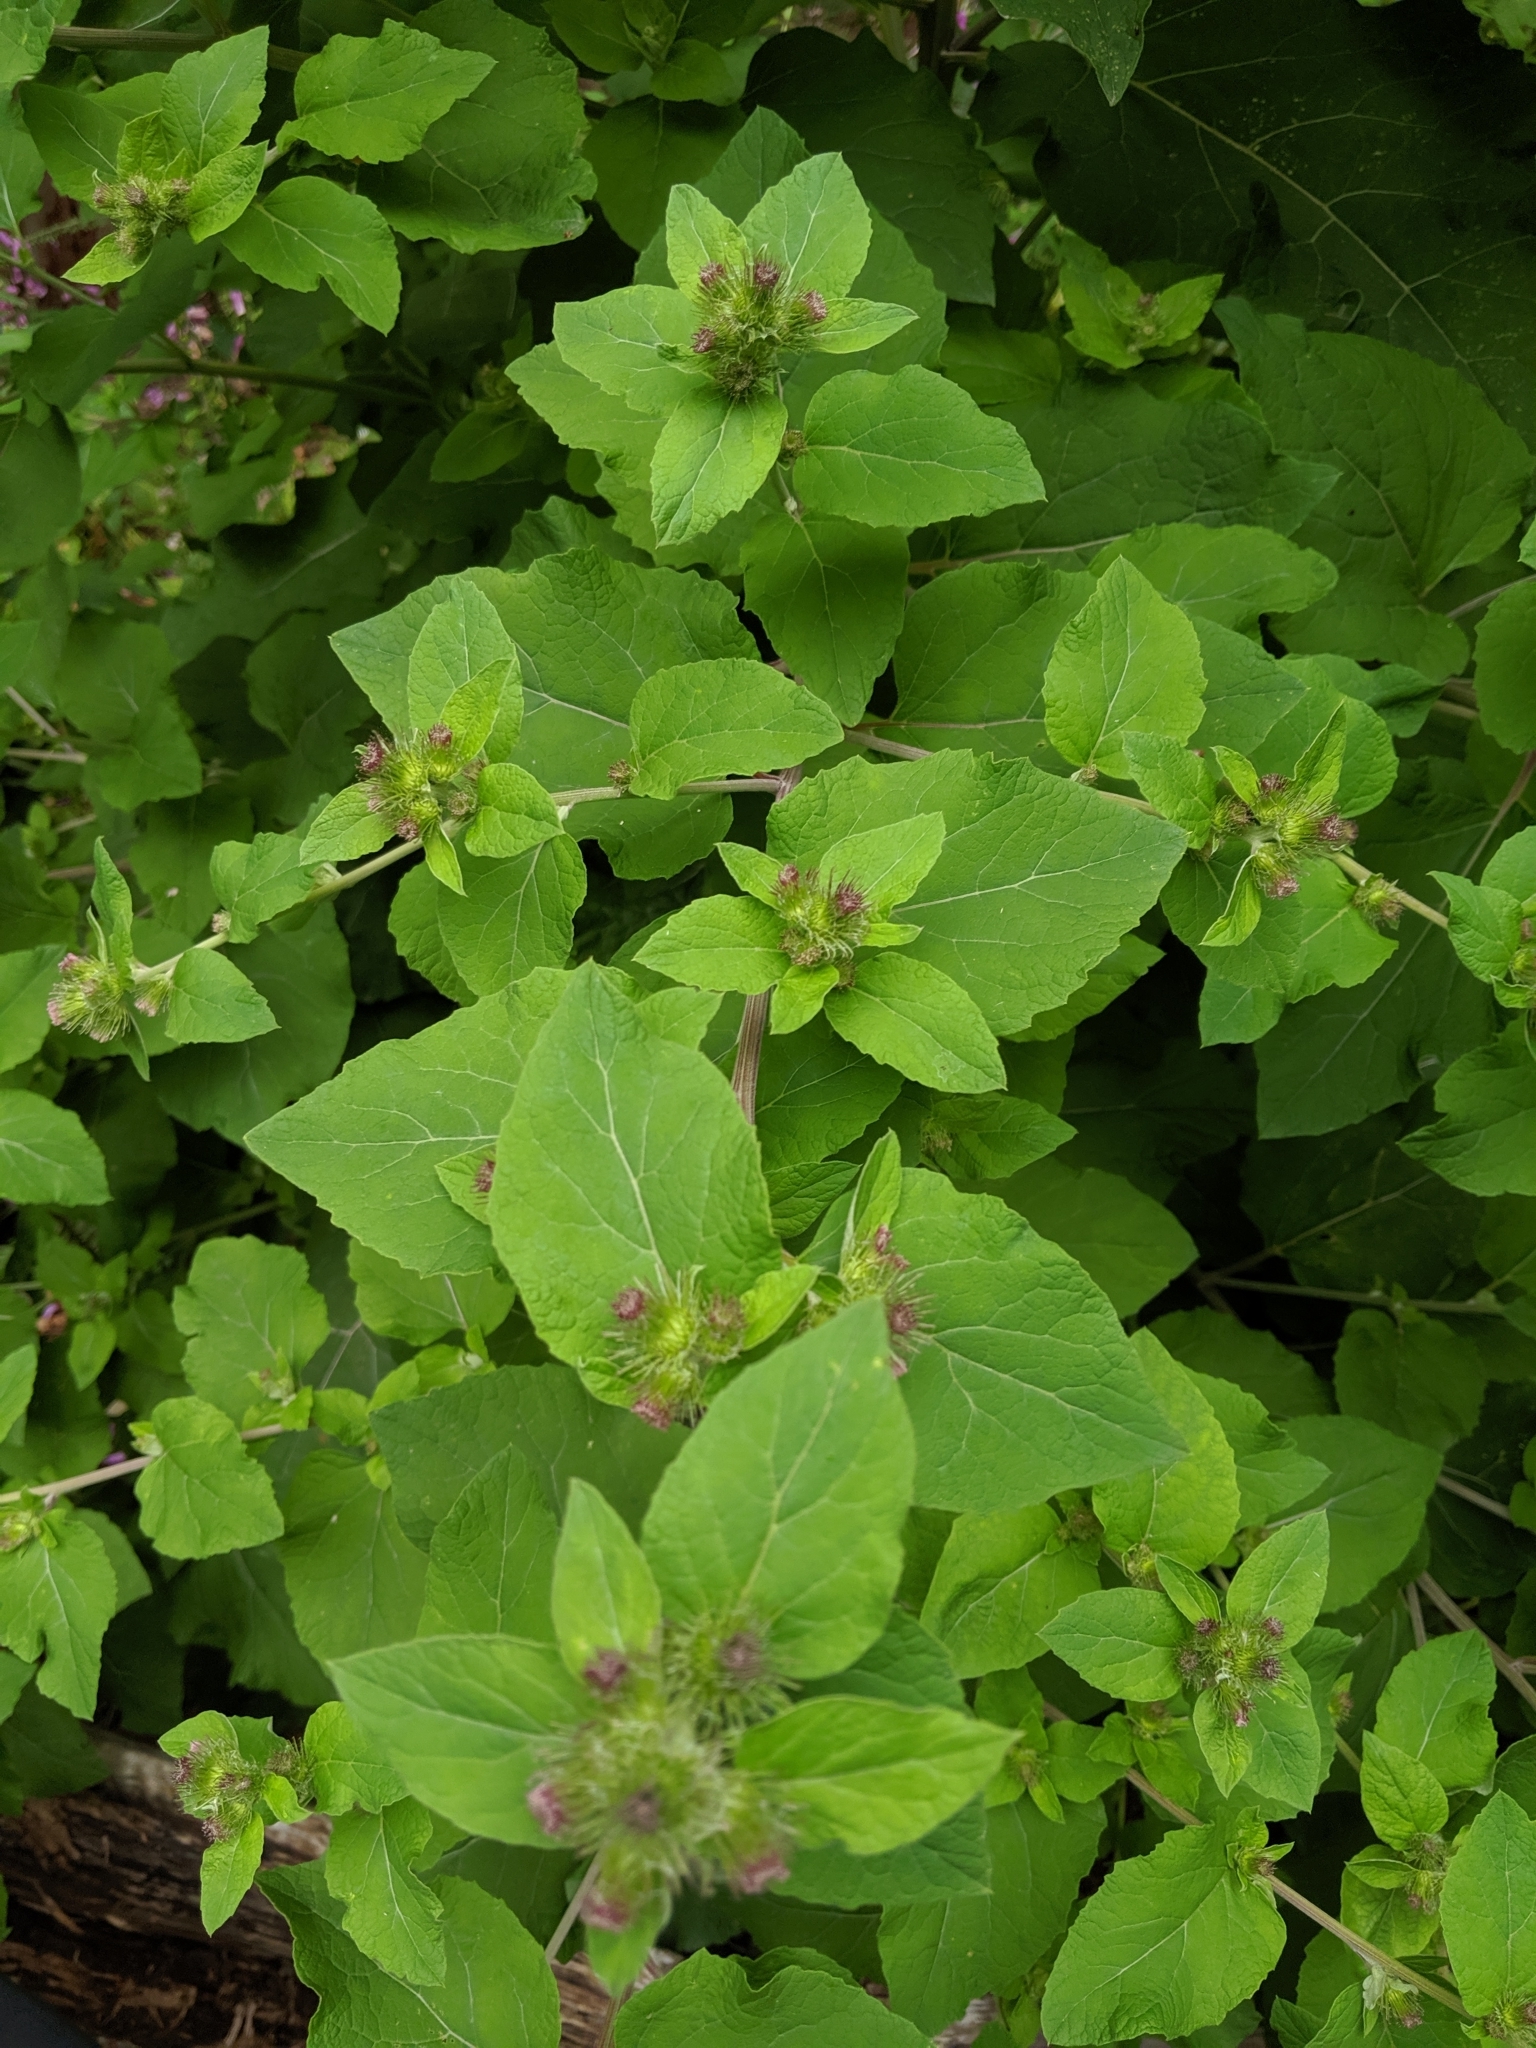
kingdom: Plantae
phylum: Tracheophyta
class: Magnoliopsida
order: Asterales
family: Asteraceae
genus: Arctium
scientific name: Arctium minus
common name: Lesser burdock
